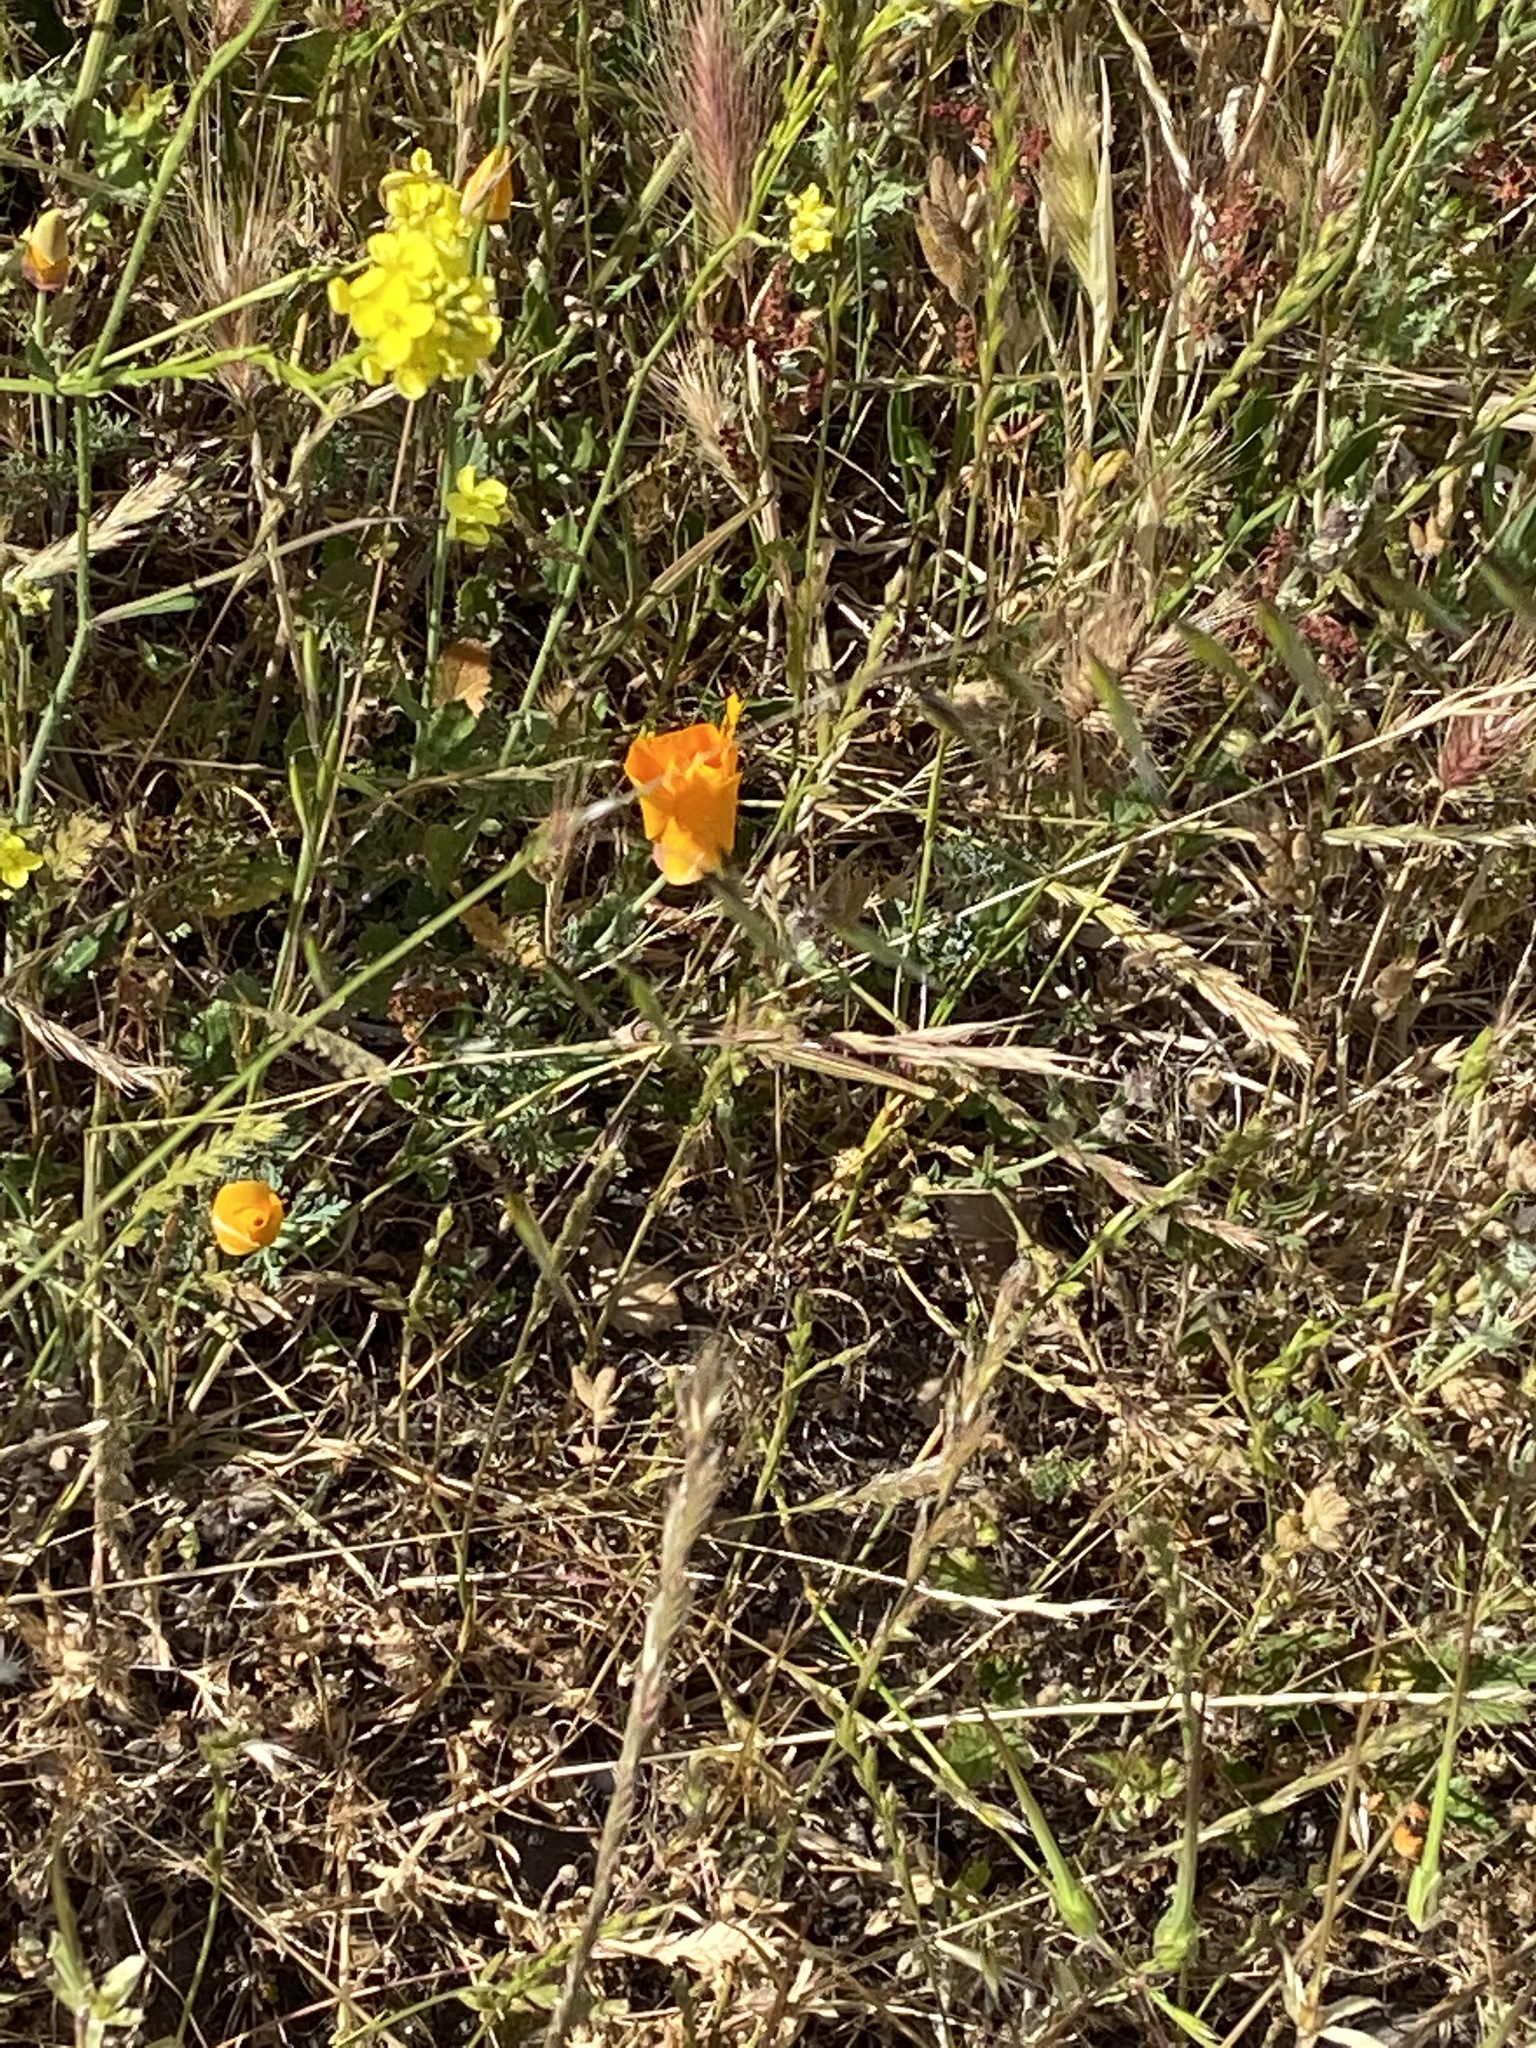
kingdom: Plantae
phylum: Tracheophyta
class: Magnoliopsida
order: Ranunculales
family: Papaveraceae
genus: Eschscholzia
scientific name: Eschscholzia californica
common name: California poppy
